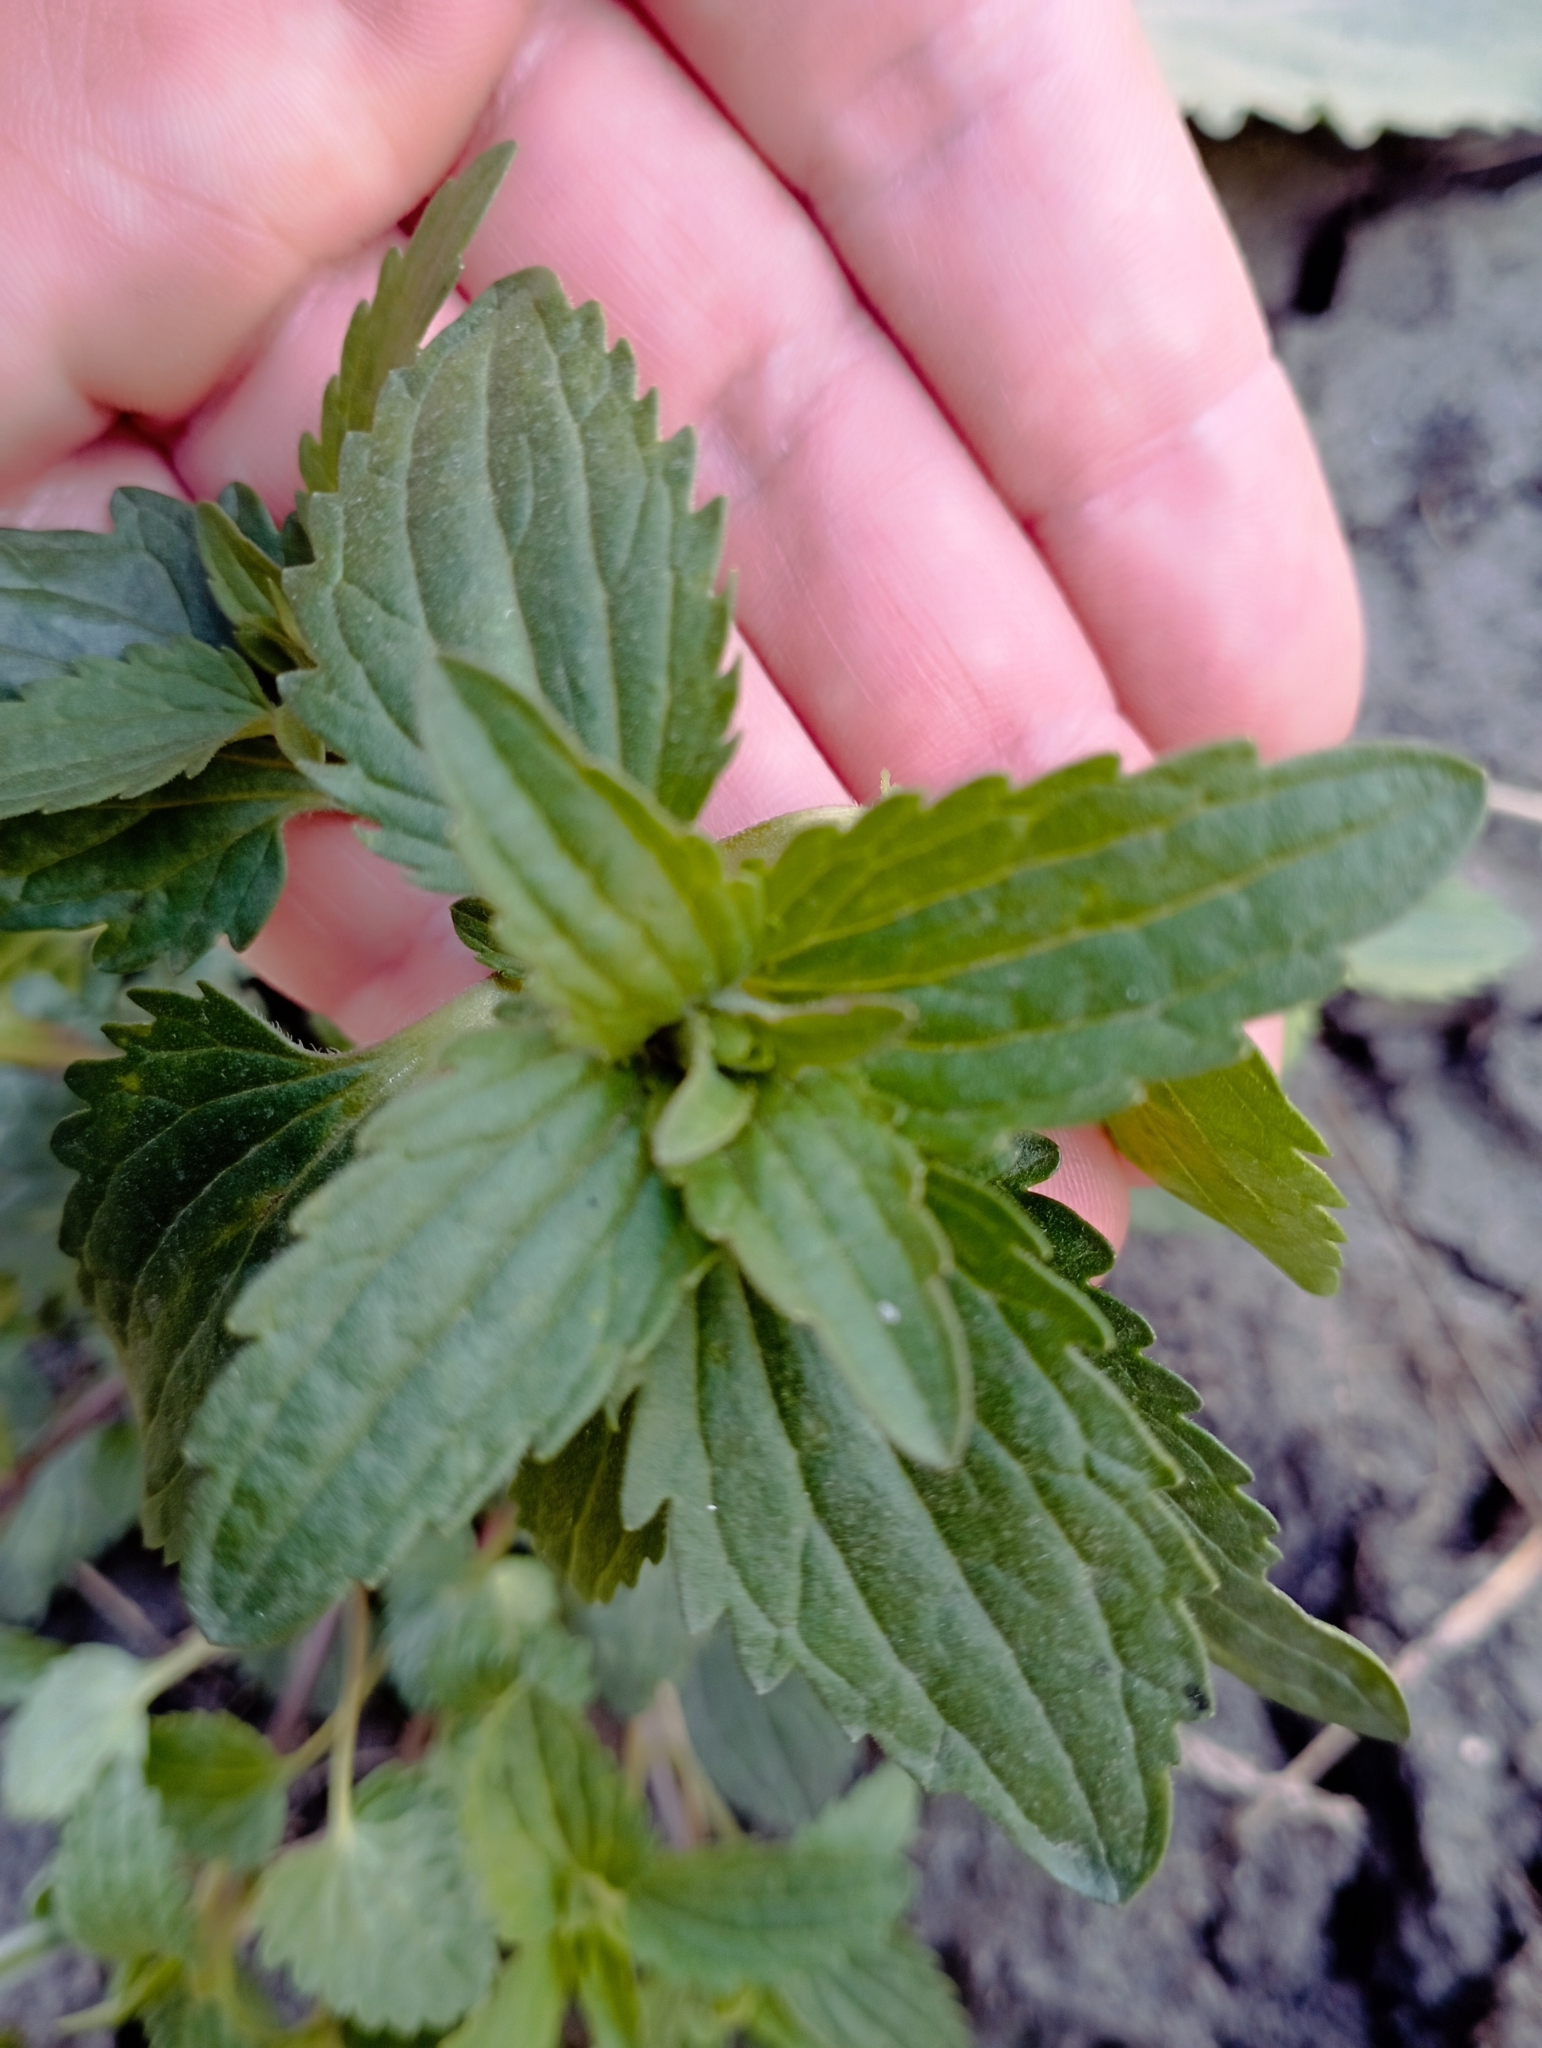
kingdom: Plantae
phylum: Tracheophyta
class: Magnoliopsida
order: Lamiales
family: Lamiaceae
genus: Dracocephalum
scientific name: Dracocephalum thymiflorum
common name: Thymeleaf dragonhead
